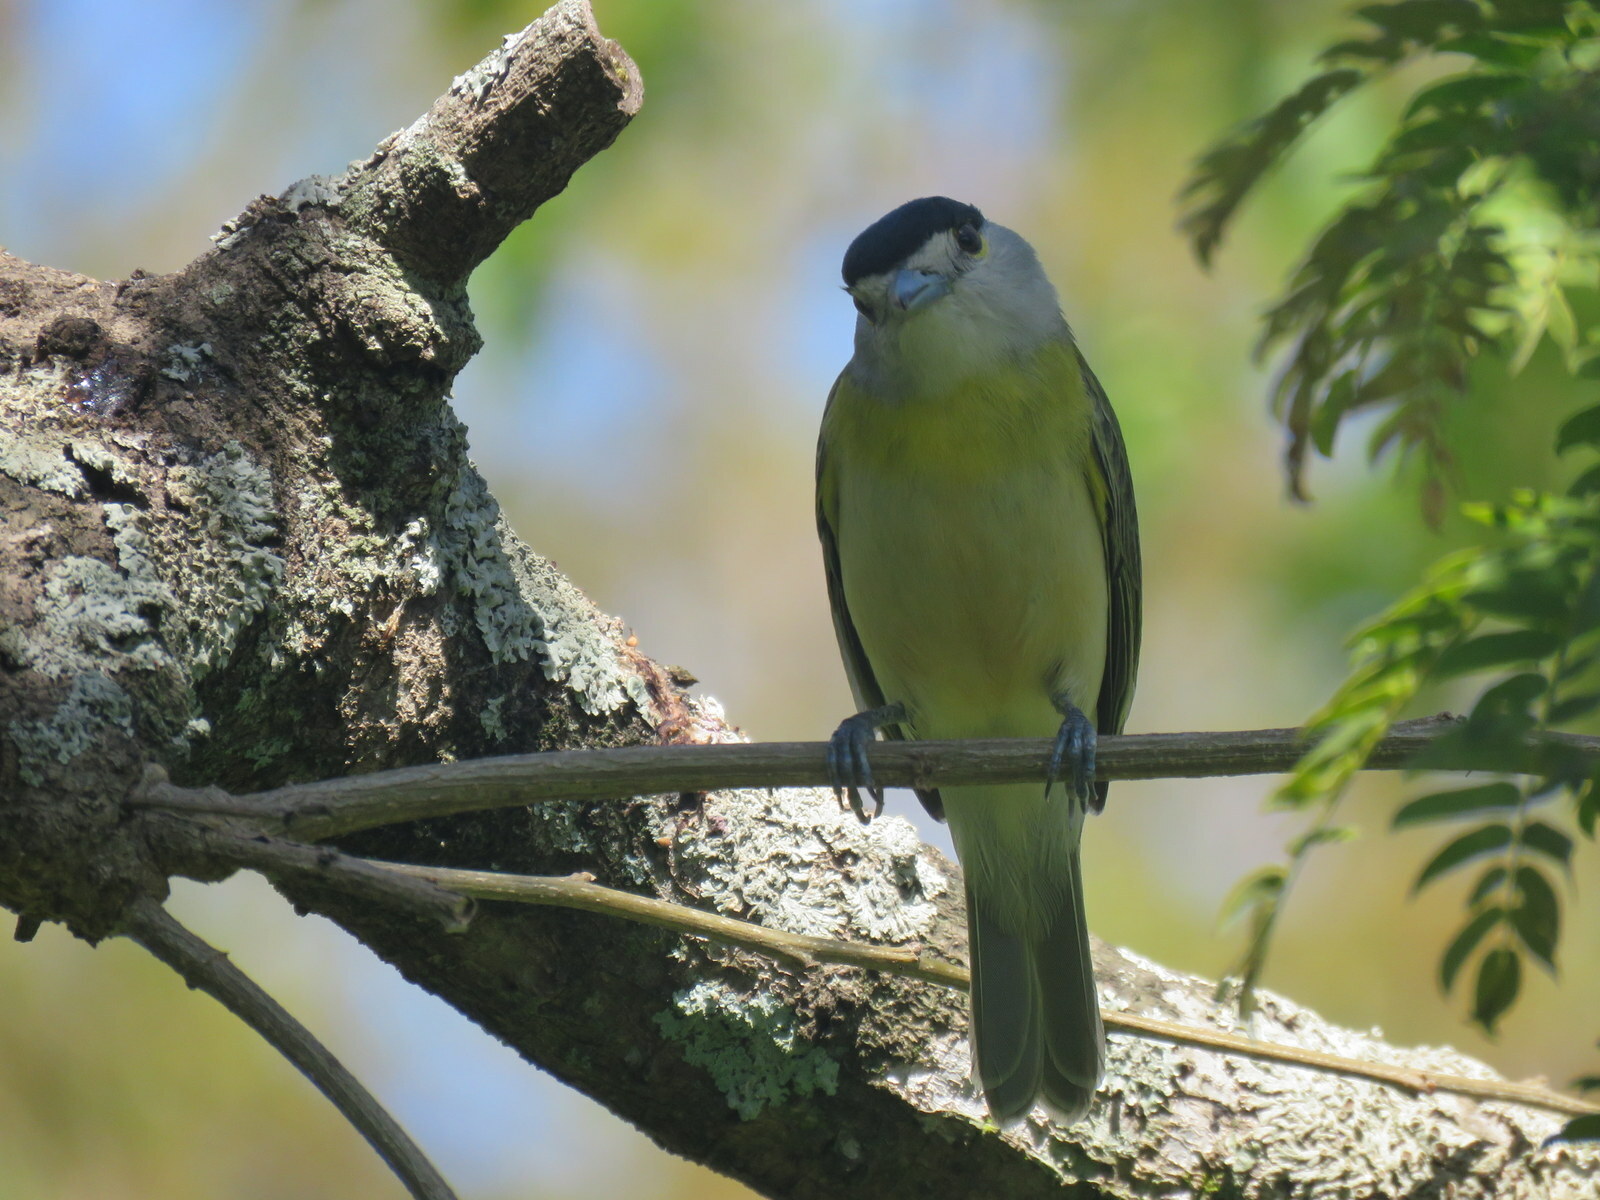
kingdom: Animalia
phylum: Chordata
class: Aves
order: Passeriformes
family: Cotingidae
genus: Pachyramphus
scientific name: Pachyramphus viridis
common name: Green-backed becard
